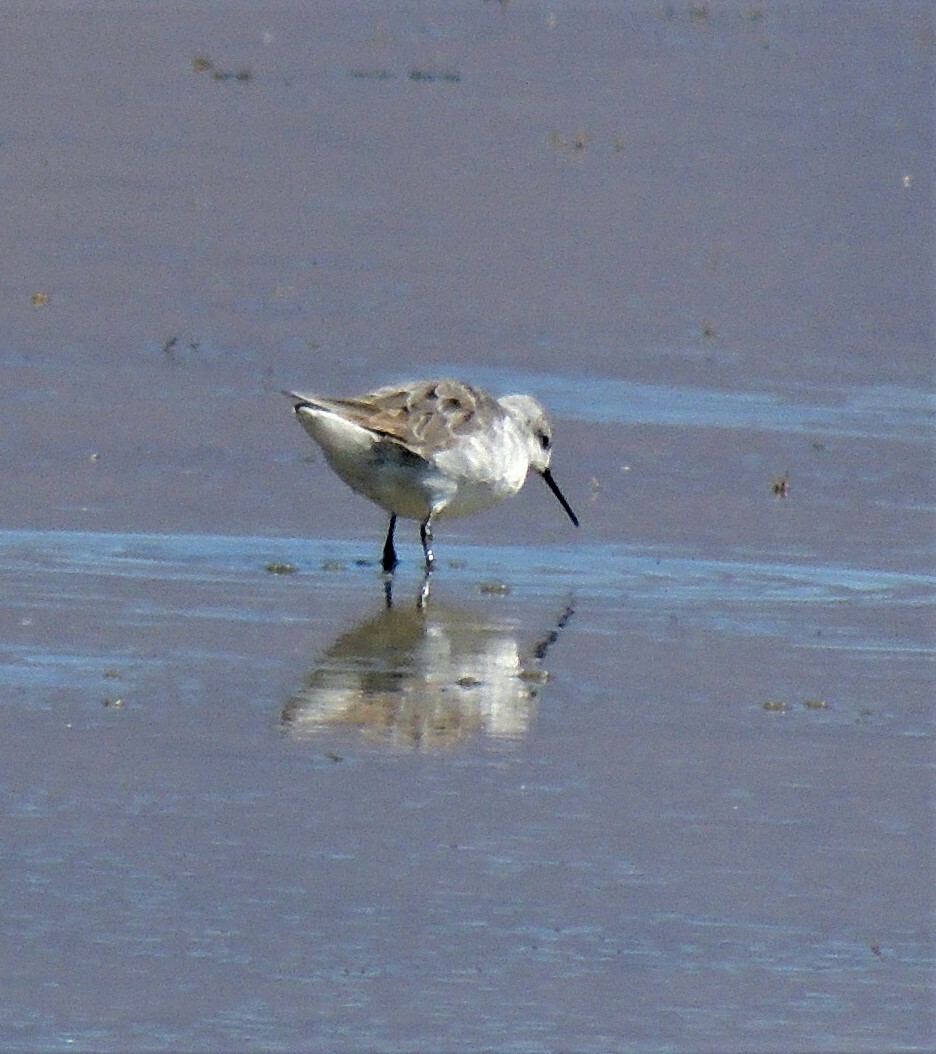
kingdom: Animalia
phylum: Chordata
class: Aves
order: Charadriiformes
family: Scolopacidae
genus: Phalaropus
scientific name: Phalaropus tricolor
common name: Wilson's phalarope
